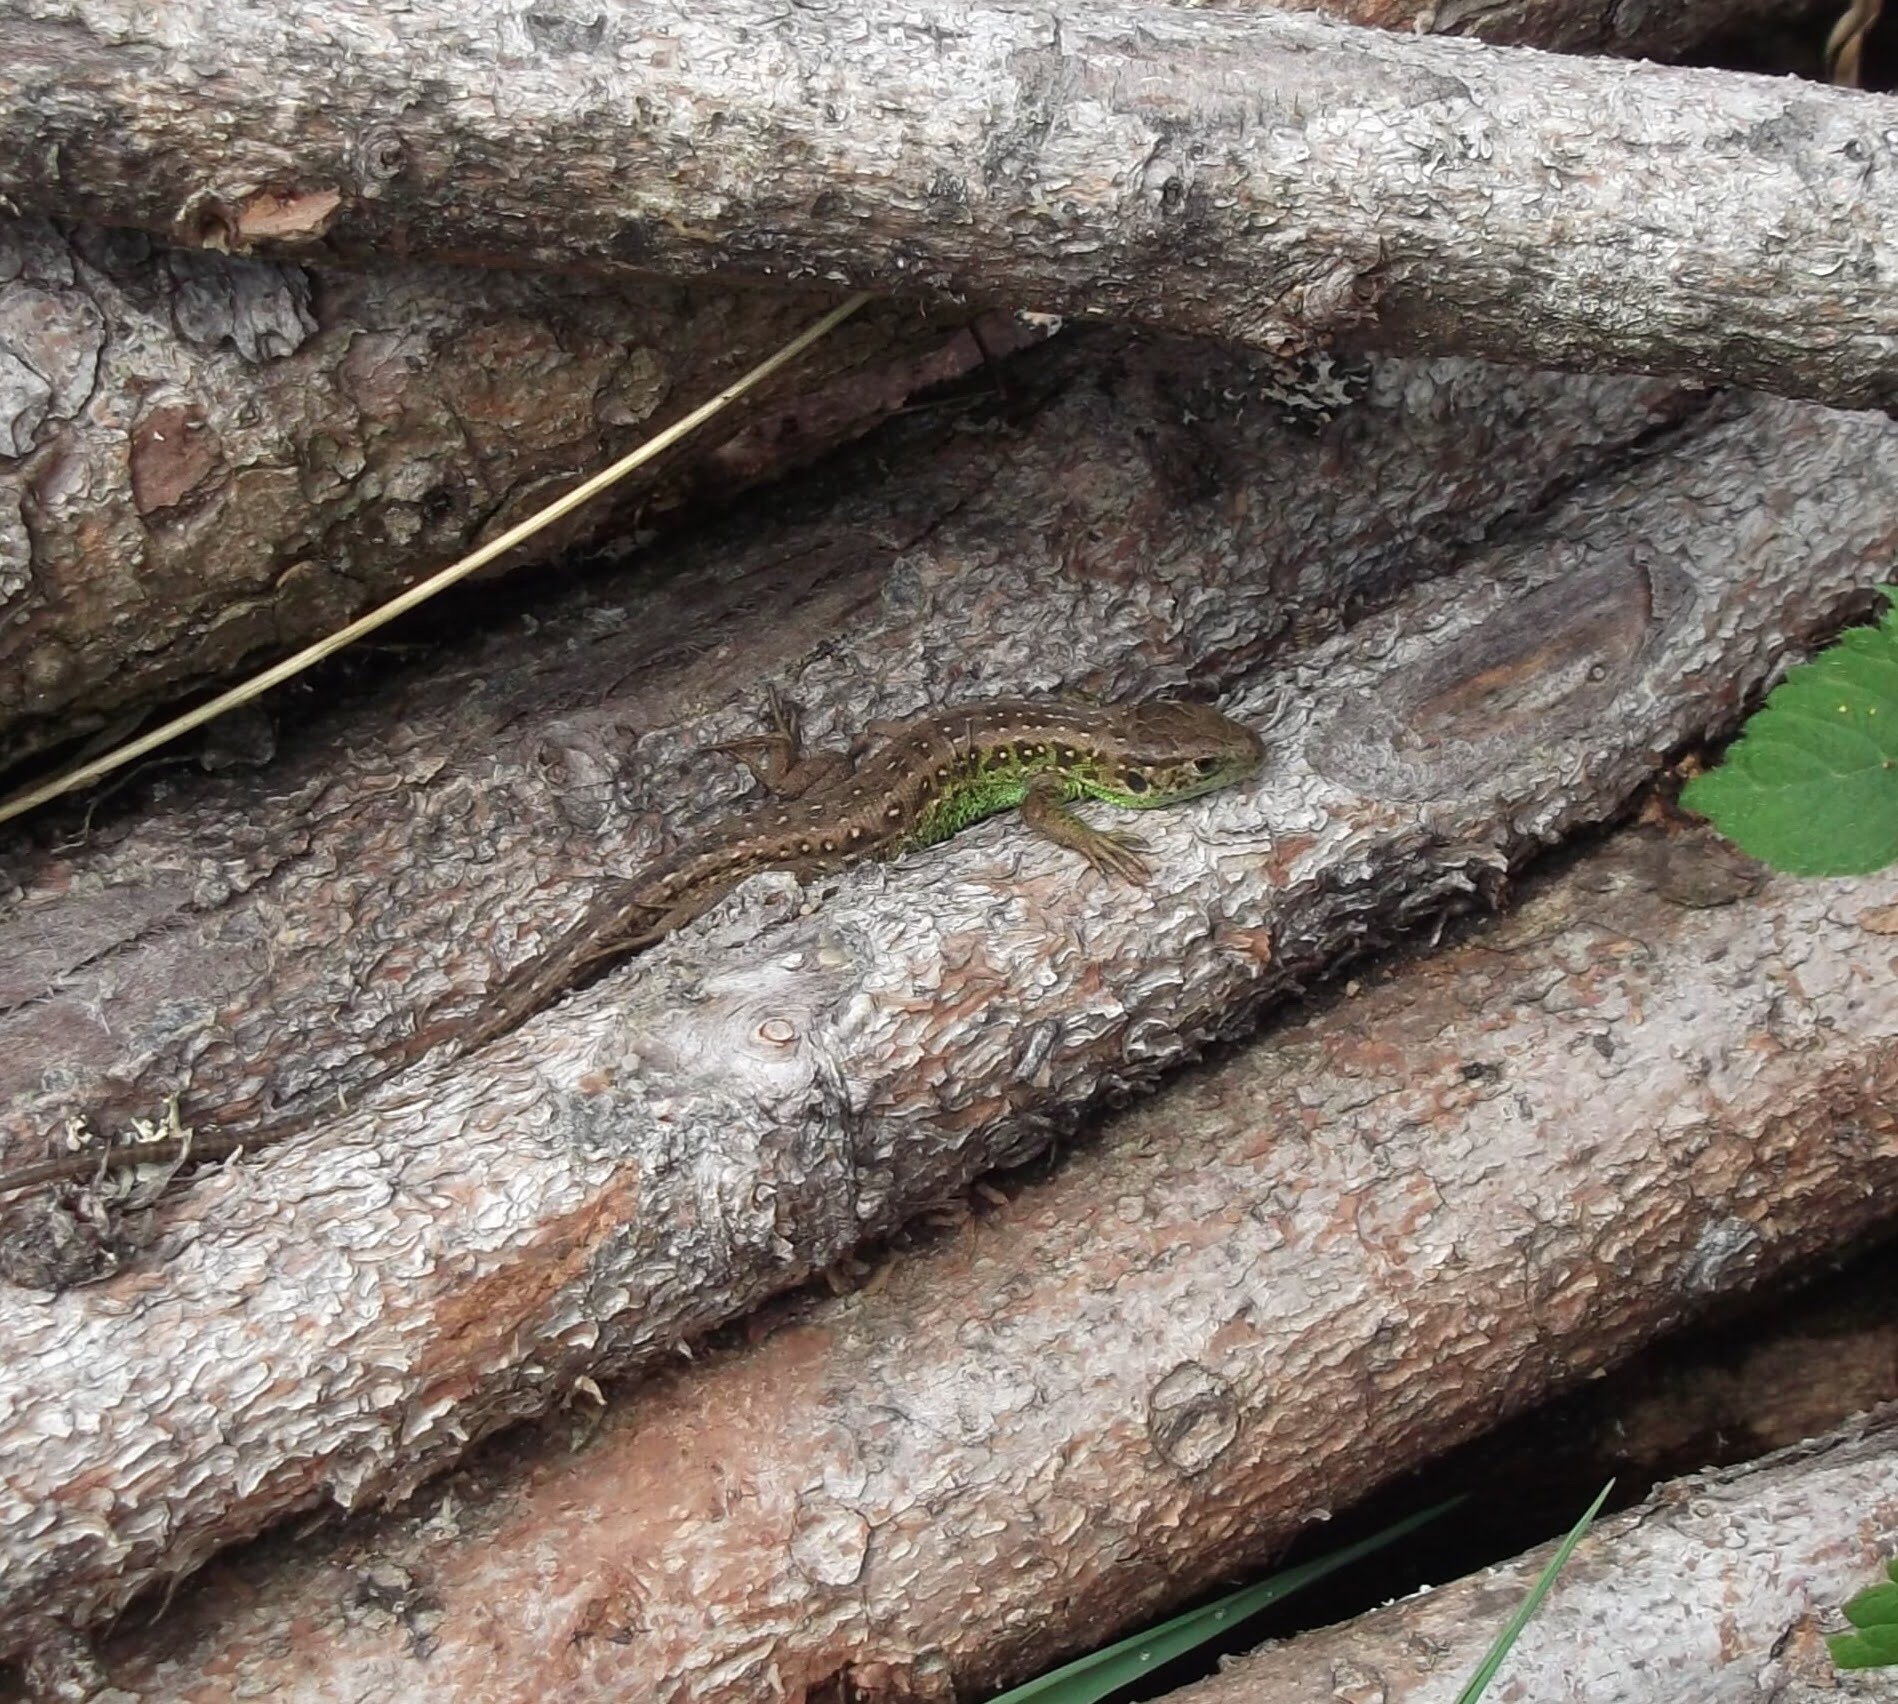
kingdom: Animalia
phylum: Chordata
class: Squamata
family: Lacertidae
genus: Lacerta
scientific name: Lacerta agilis
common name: Sand lizard
